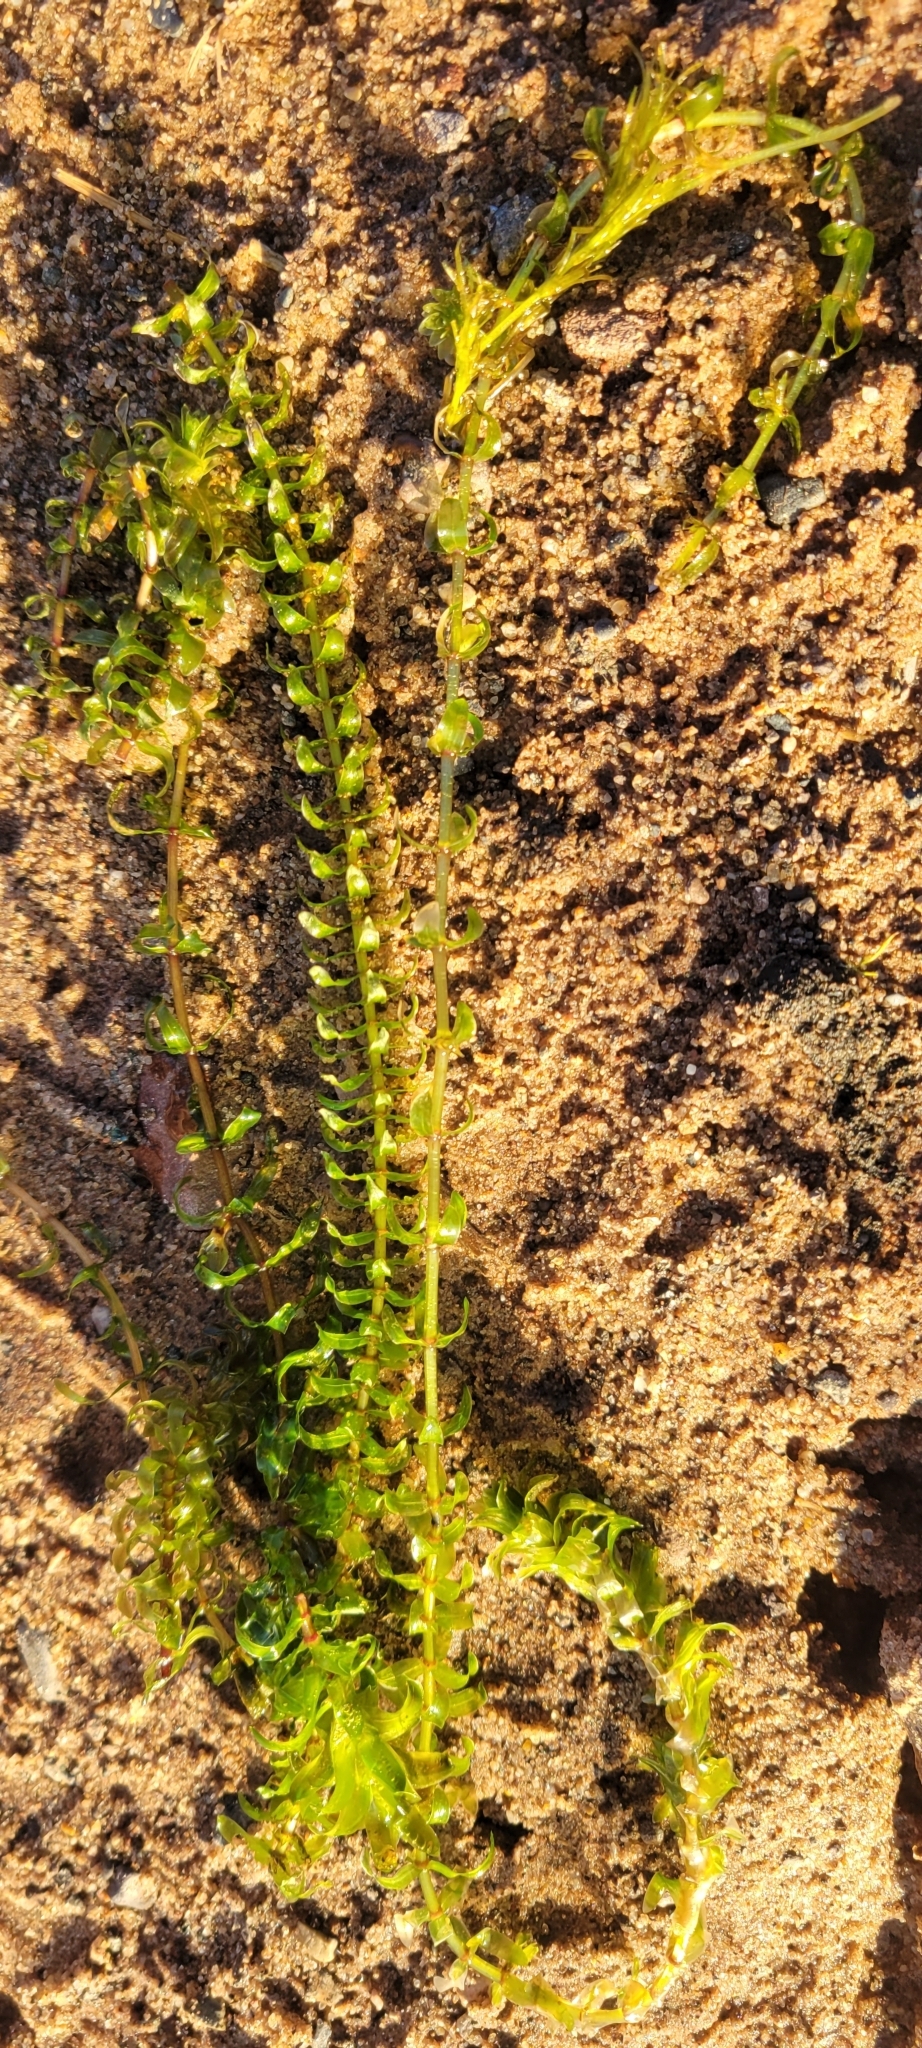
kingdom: Plantae
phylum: Tracheophyta
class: Liliopsida
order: Alismatales
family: Hydrocharitaceae
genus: Elodea
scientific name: Elodea canadensis
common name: Canadian waterweed
